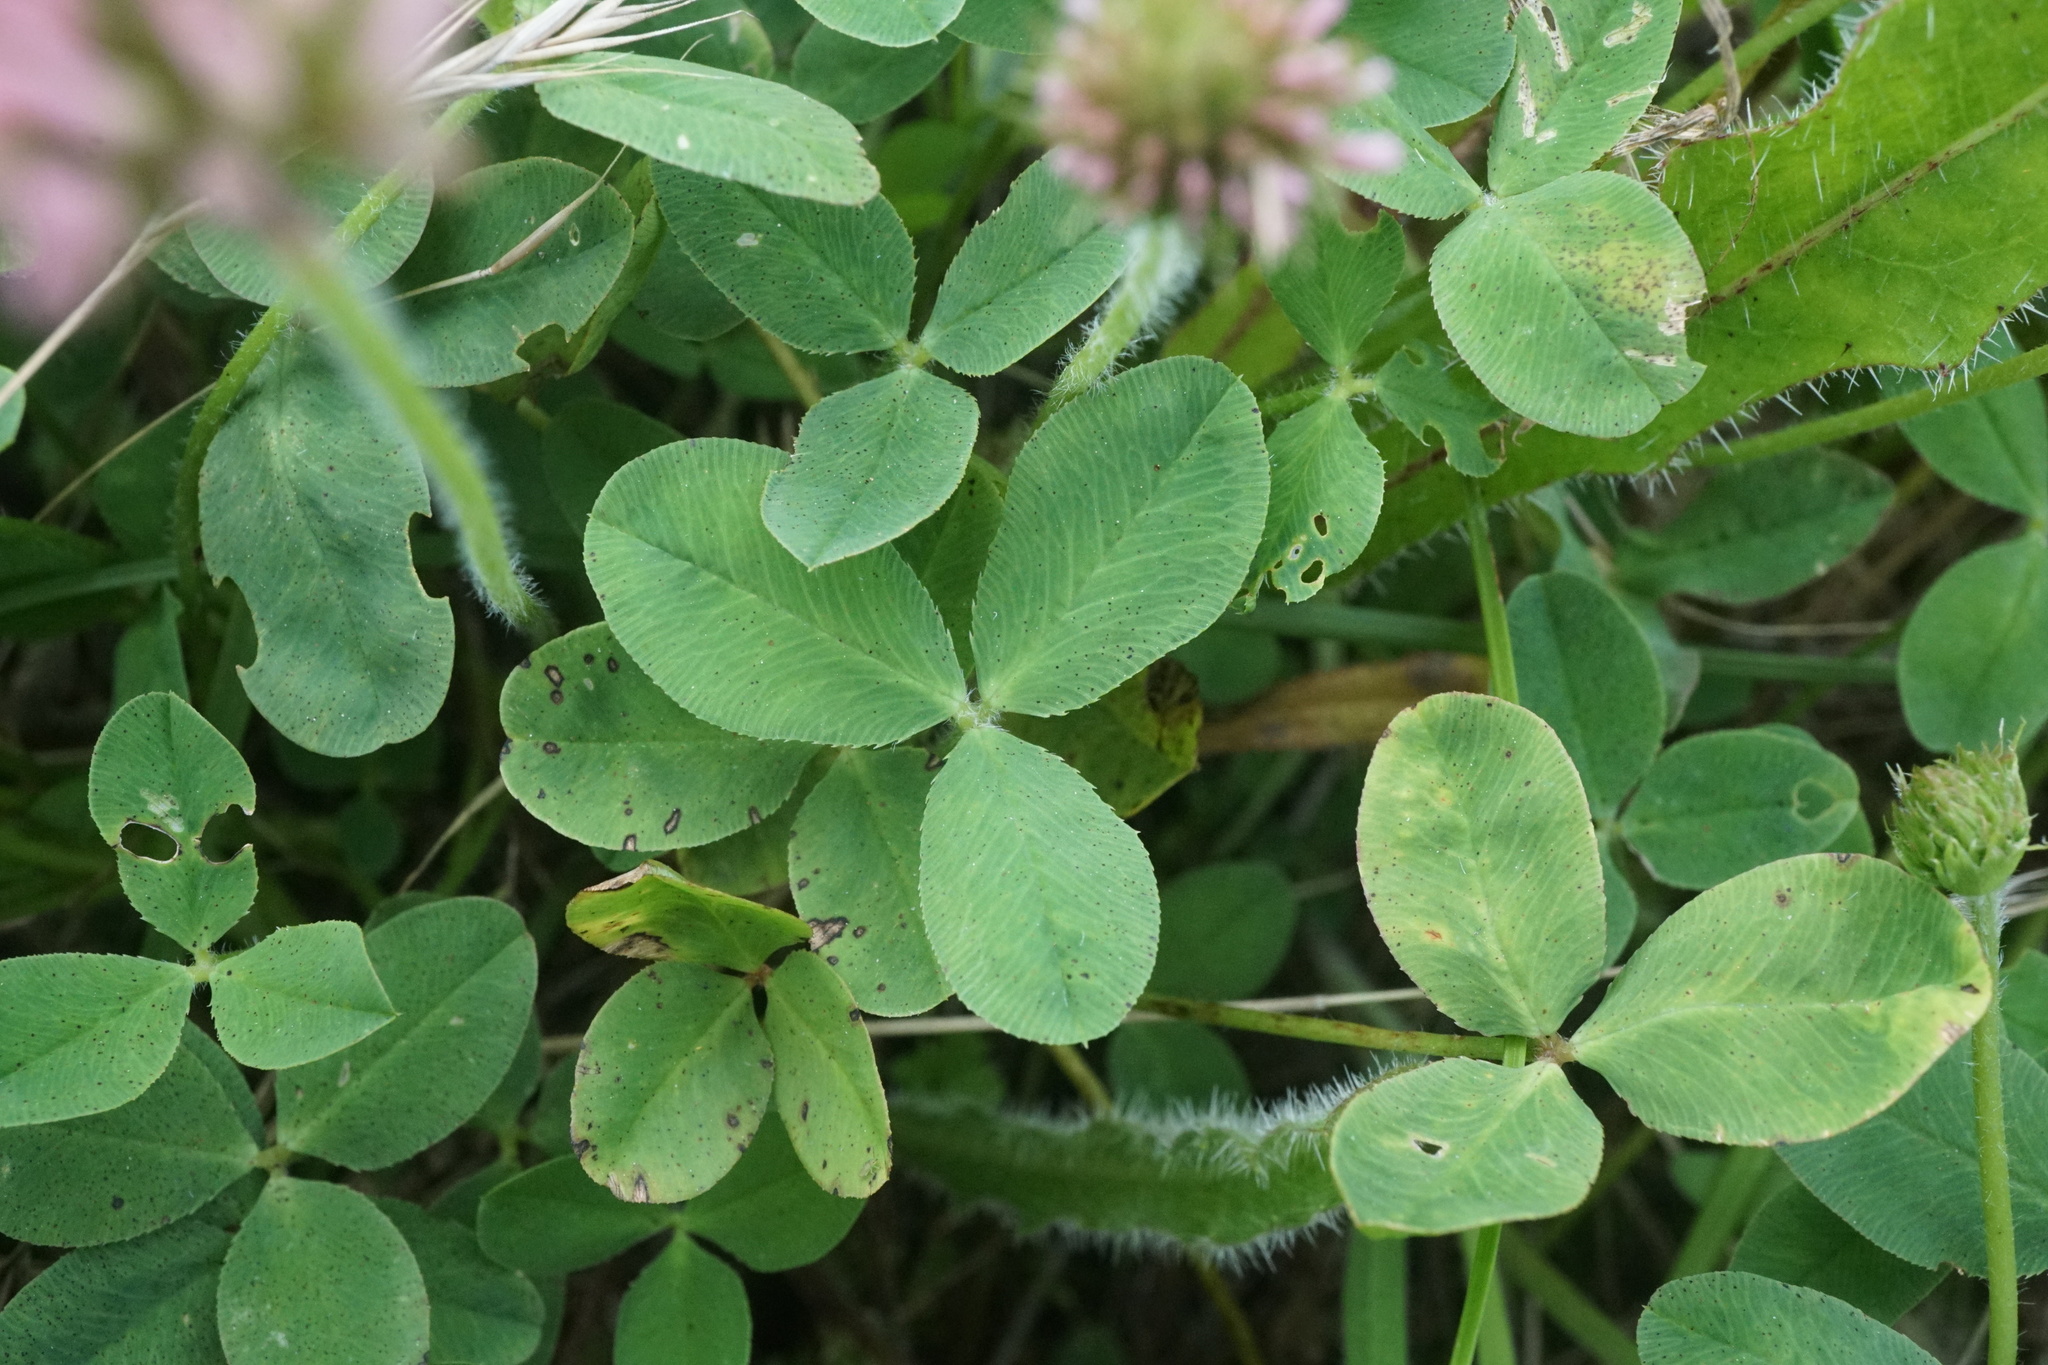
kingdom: Plantae
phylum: Tracheophyta
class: Magnoliopsida
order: Fabales
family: Fabaceae
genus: Trifolium
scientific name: Trifolium fragiferum
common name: Strawberry clover
